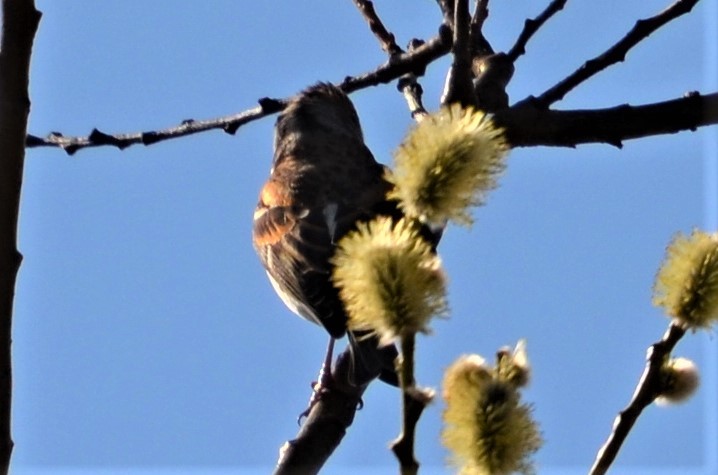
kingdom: Animalia
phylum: Chordata
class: Aves
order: Passeriformes
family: Fringillidae
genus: Fringilla
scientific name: Fringilla montifringilla
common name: Brambling
